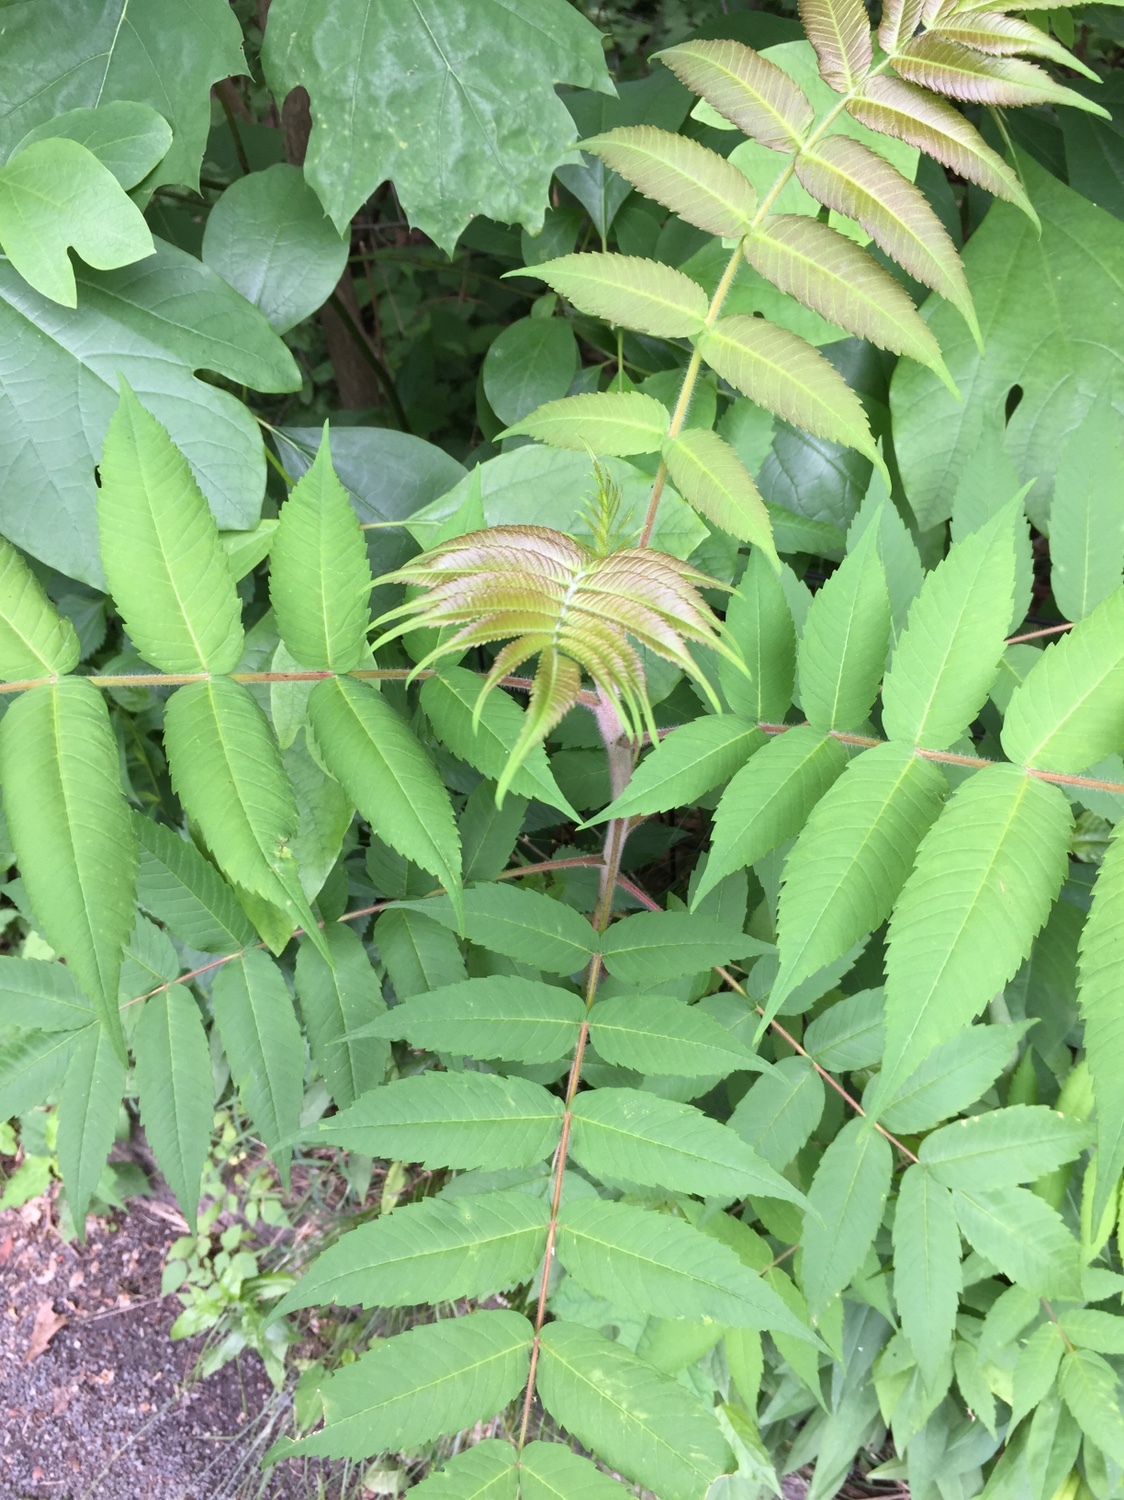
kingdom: Plantae
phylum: Tracheophyta
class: Magnoliopsida
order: Sapindales
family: Anacardiaceae
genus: Rhus
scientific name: Rhus typhina
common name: Staghorn sumac
